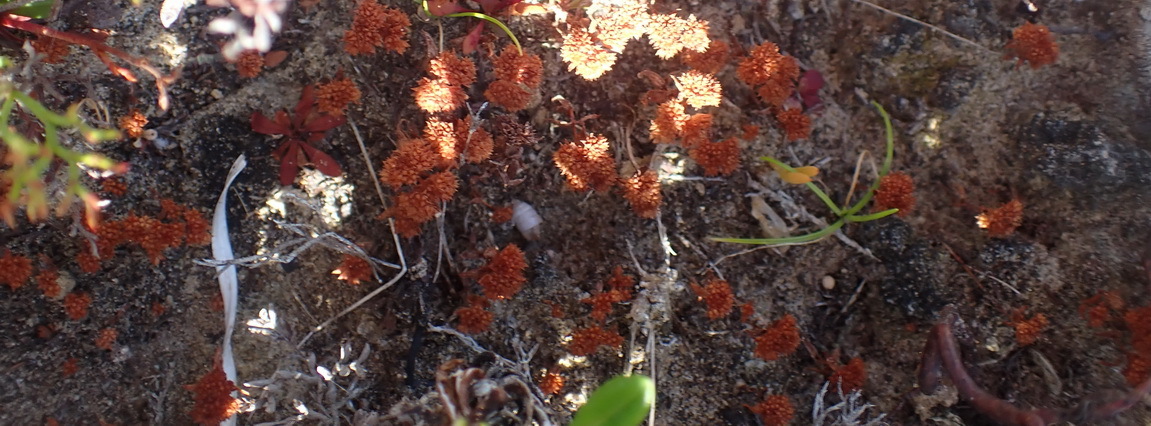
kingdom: Plantae
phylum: Tracheophyta
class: Magnoliopsida
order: Saxifragales
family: Crassulaceae
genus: Crassula
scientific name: Crassula umbellata
